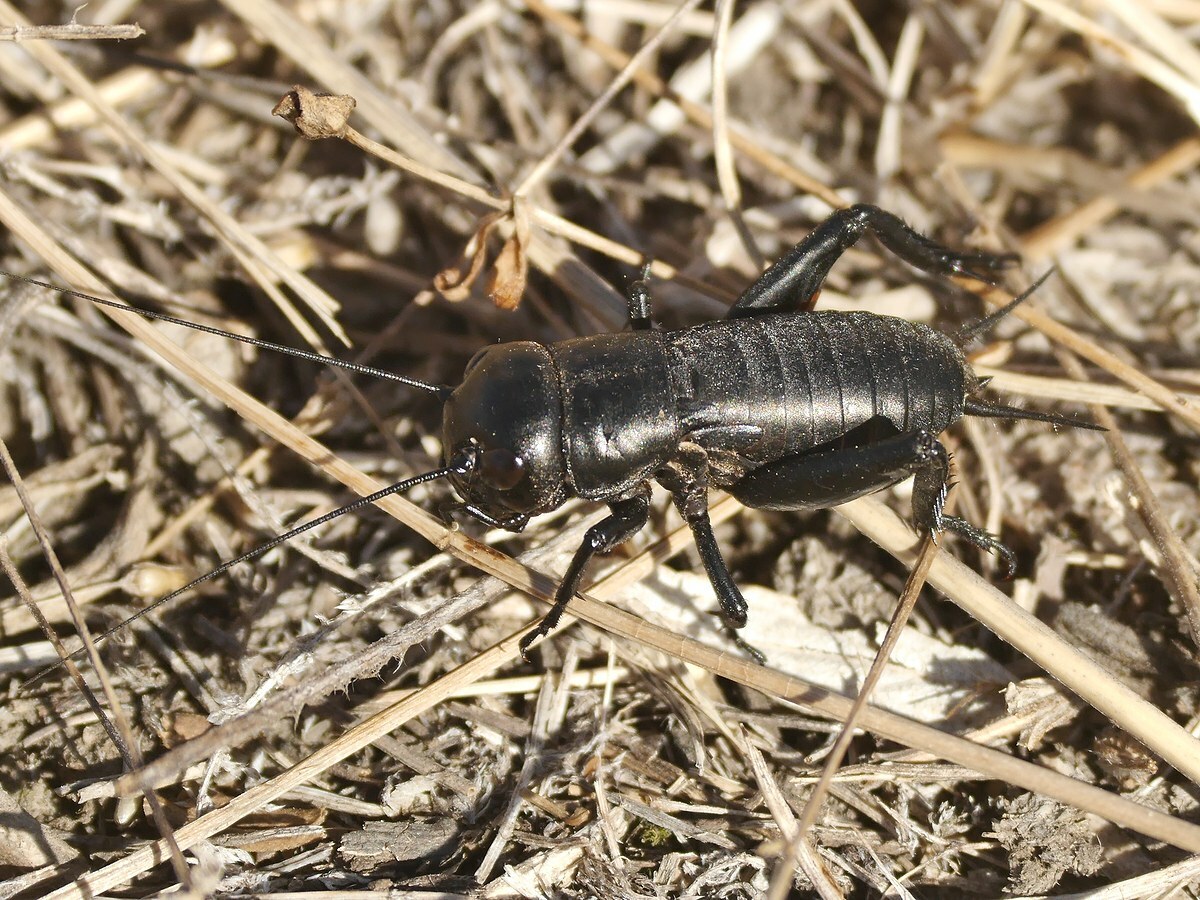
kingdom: Animalia
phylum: Arthropoda
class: Insecta
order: Orthoptera
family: Gryllidae
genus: Gryllus
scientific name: Gryllus campestris
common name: Field cricket
